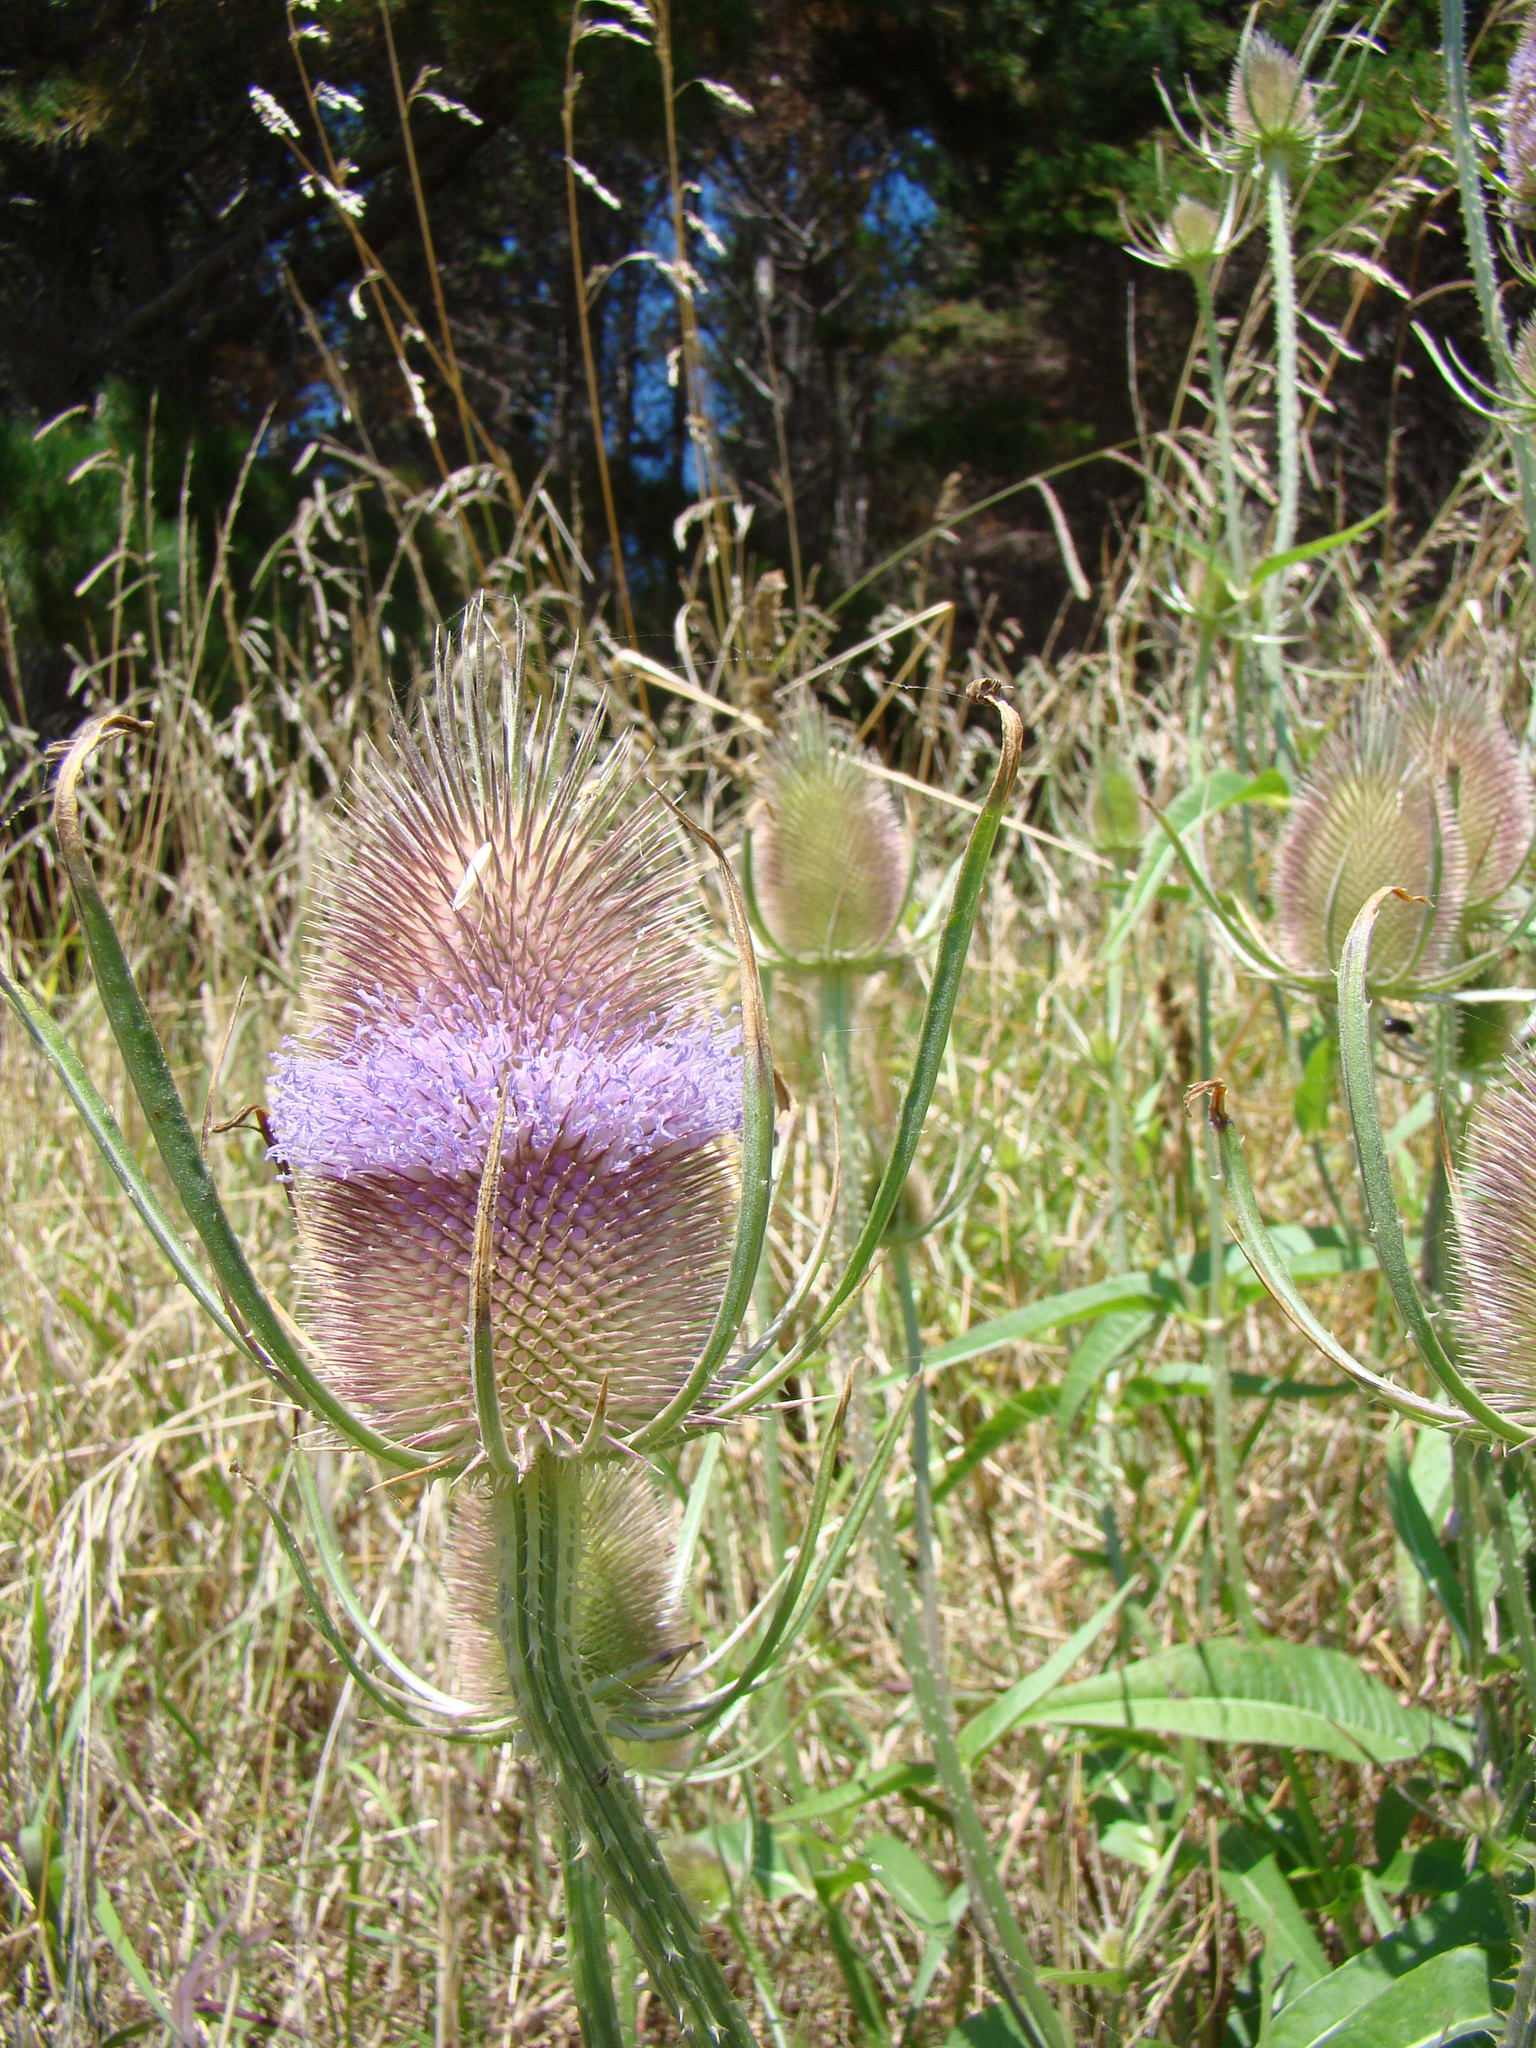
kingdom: Plantae
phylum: Tracheophyta
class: Magnoliopsida
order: Dipsacales
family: Caprifoliaceae
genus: Dipsacus
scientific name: Dipsacus fullonum
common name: Teasel
